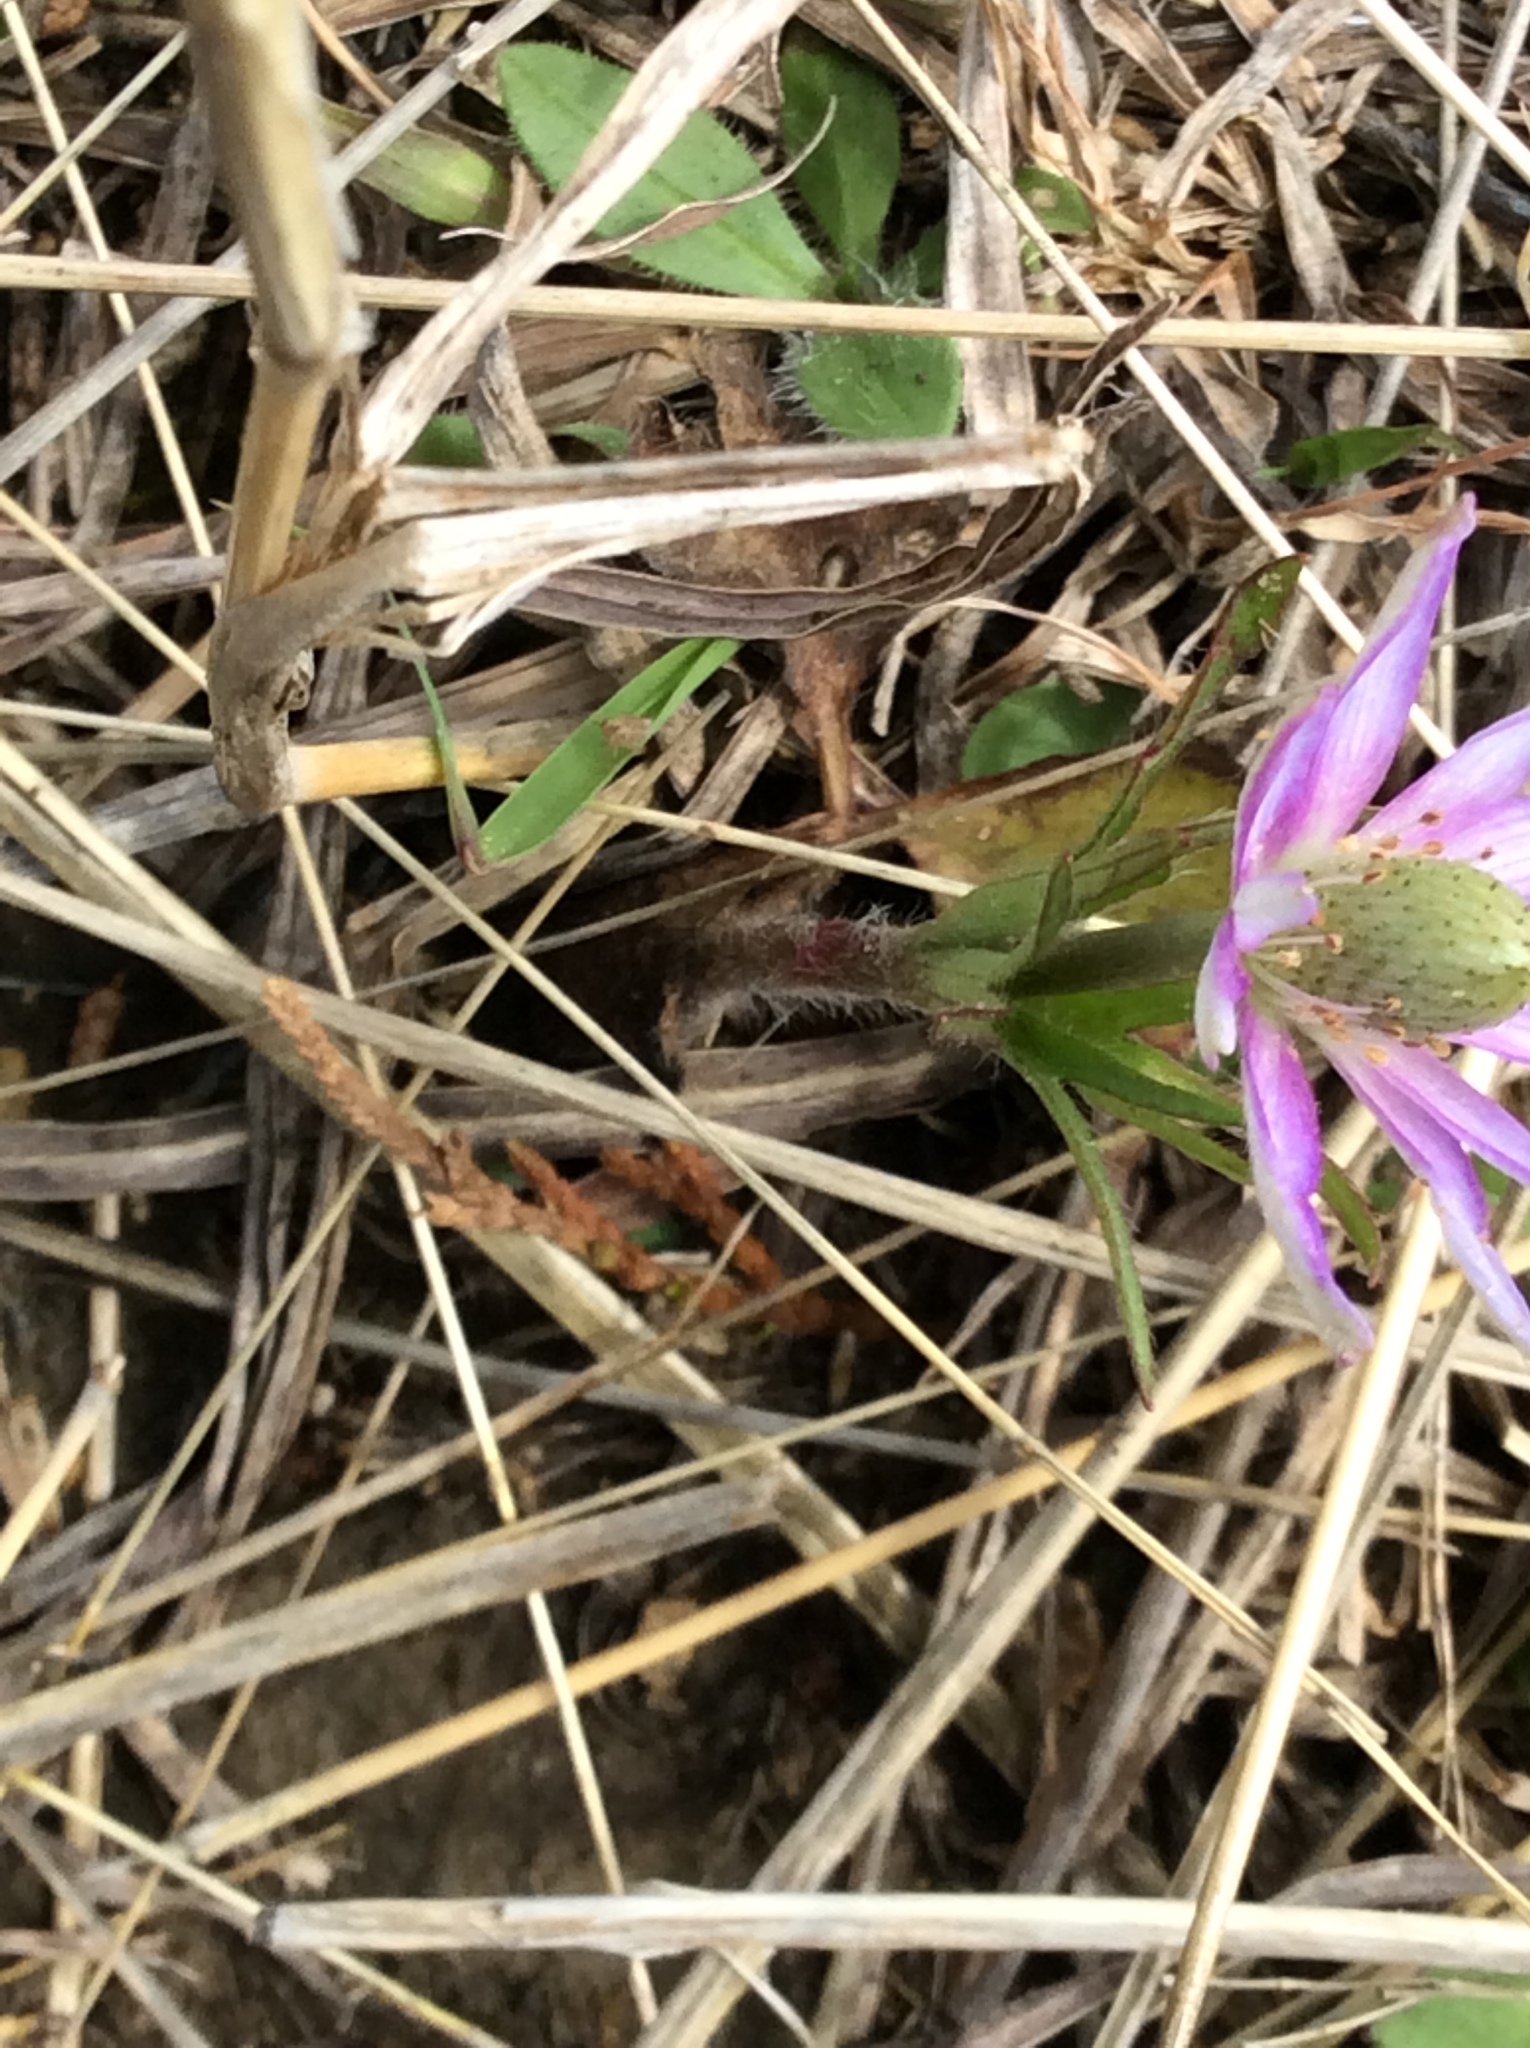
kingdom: Plantae
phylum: Tracheophyta
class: Magnoliopsida
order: Ranunculales
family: Ranunculaceae
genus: Anemone
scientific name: Anemone berlandieri
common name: Ten-petal anemone
